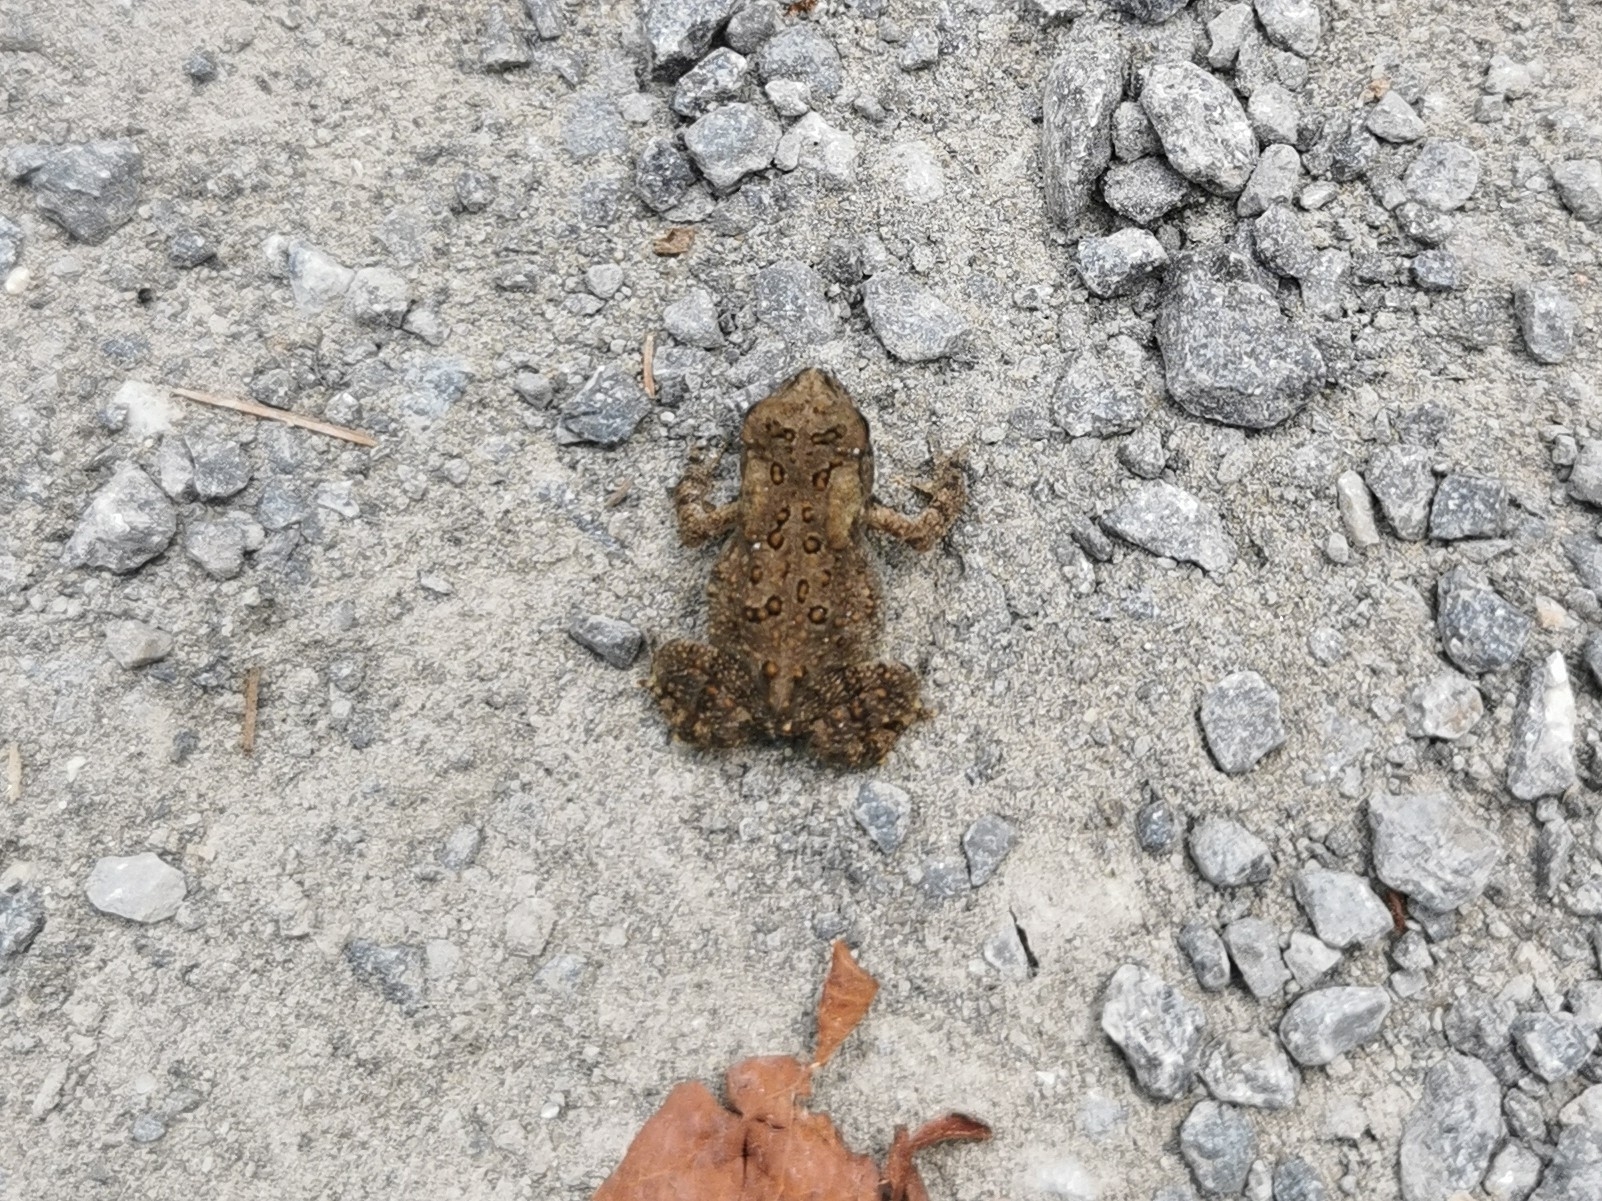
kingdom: Animalia
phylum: Chordata
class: Amphibia
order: Anura
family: Bufonidae
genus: Anaxyrus
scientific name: Anaxyrus americanus
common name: American toad
